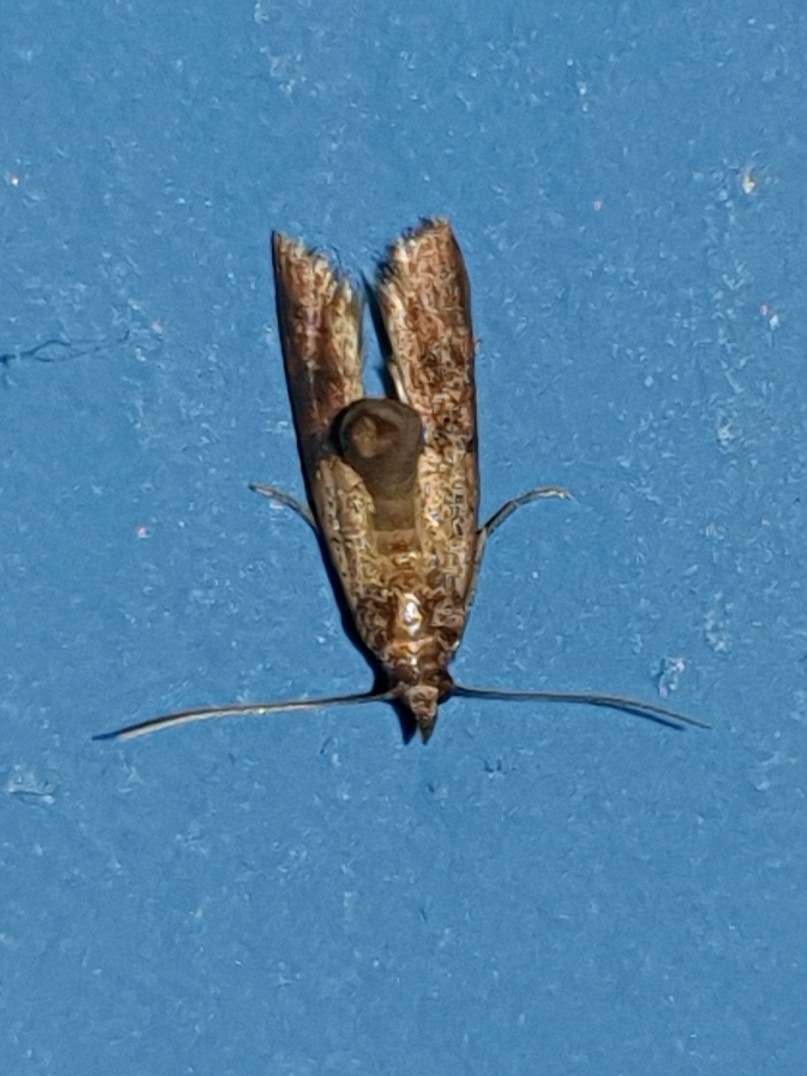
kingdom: Animalia
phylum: Arthropoda
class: Insecta
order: Lepidoptera
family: Pyralidae
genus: Plodia
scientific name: Plodia interpunctella
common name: Indian meal moth
